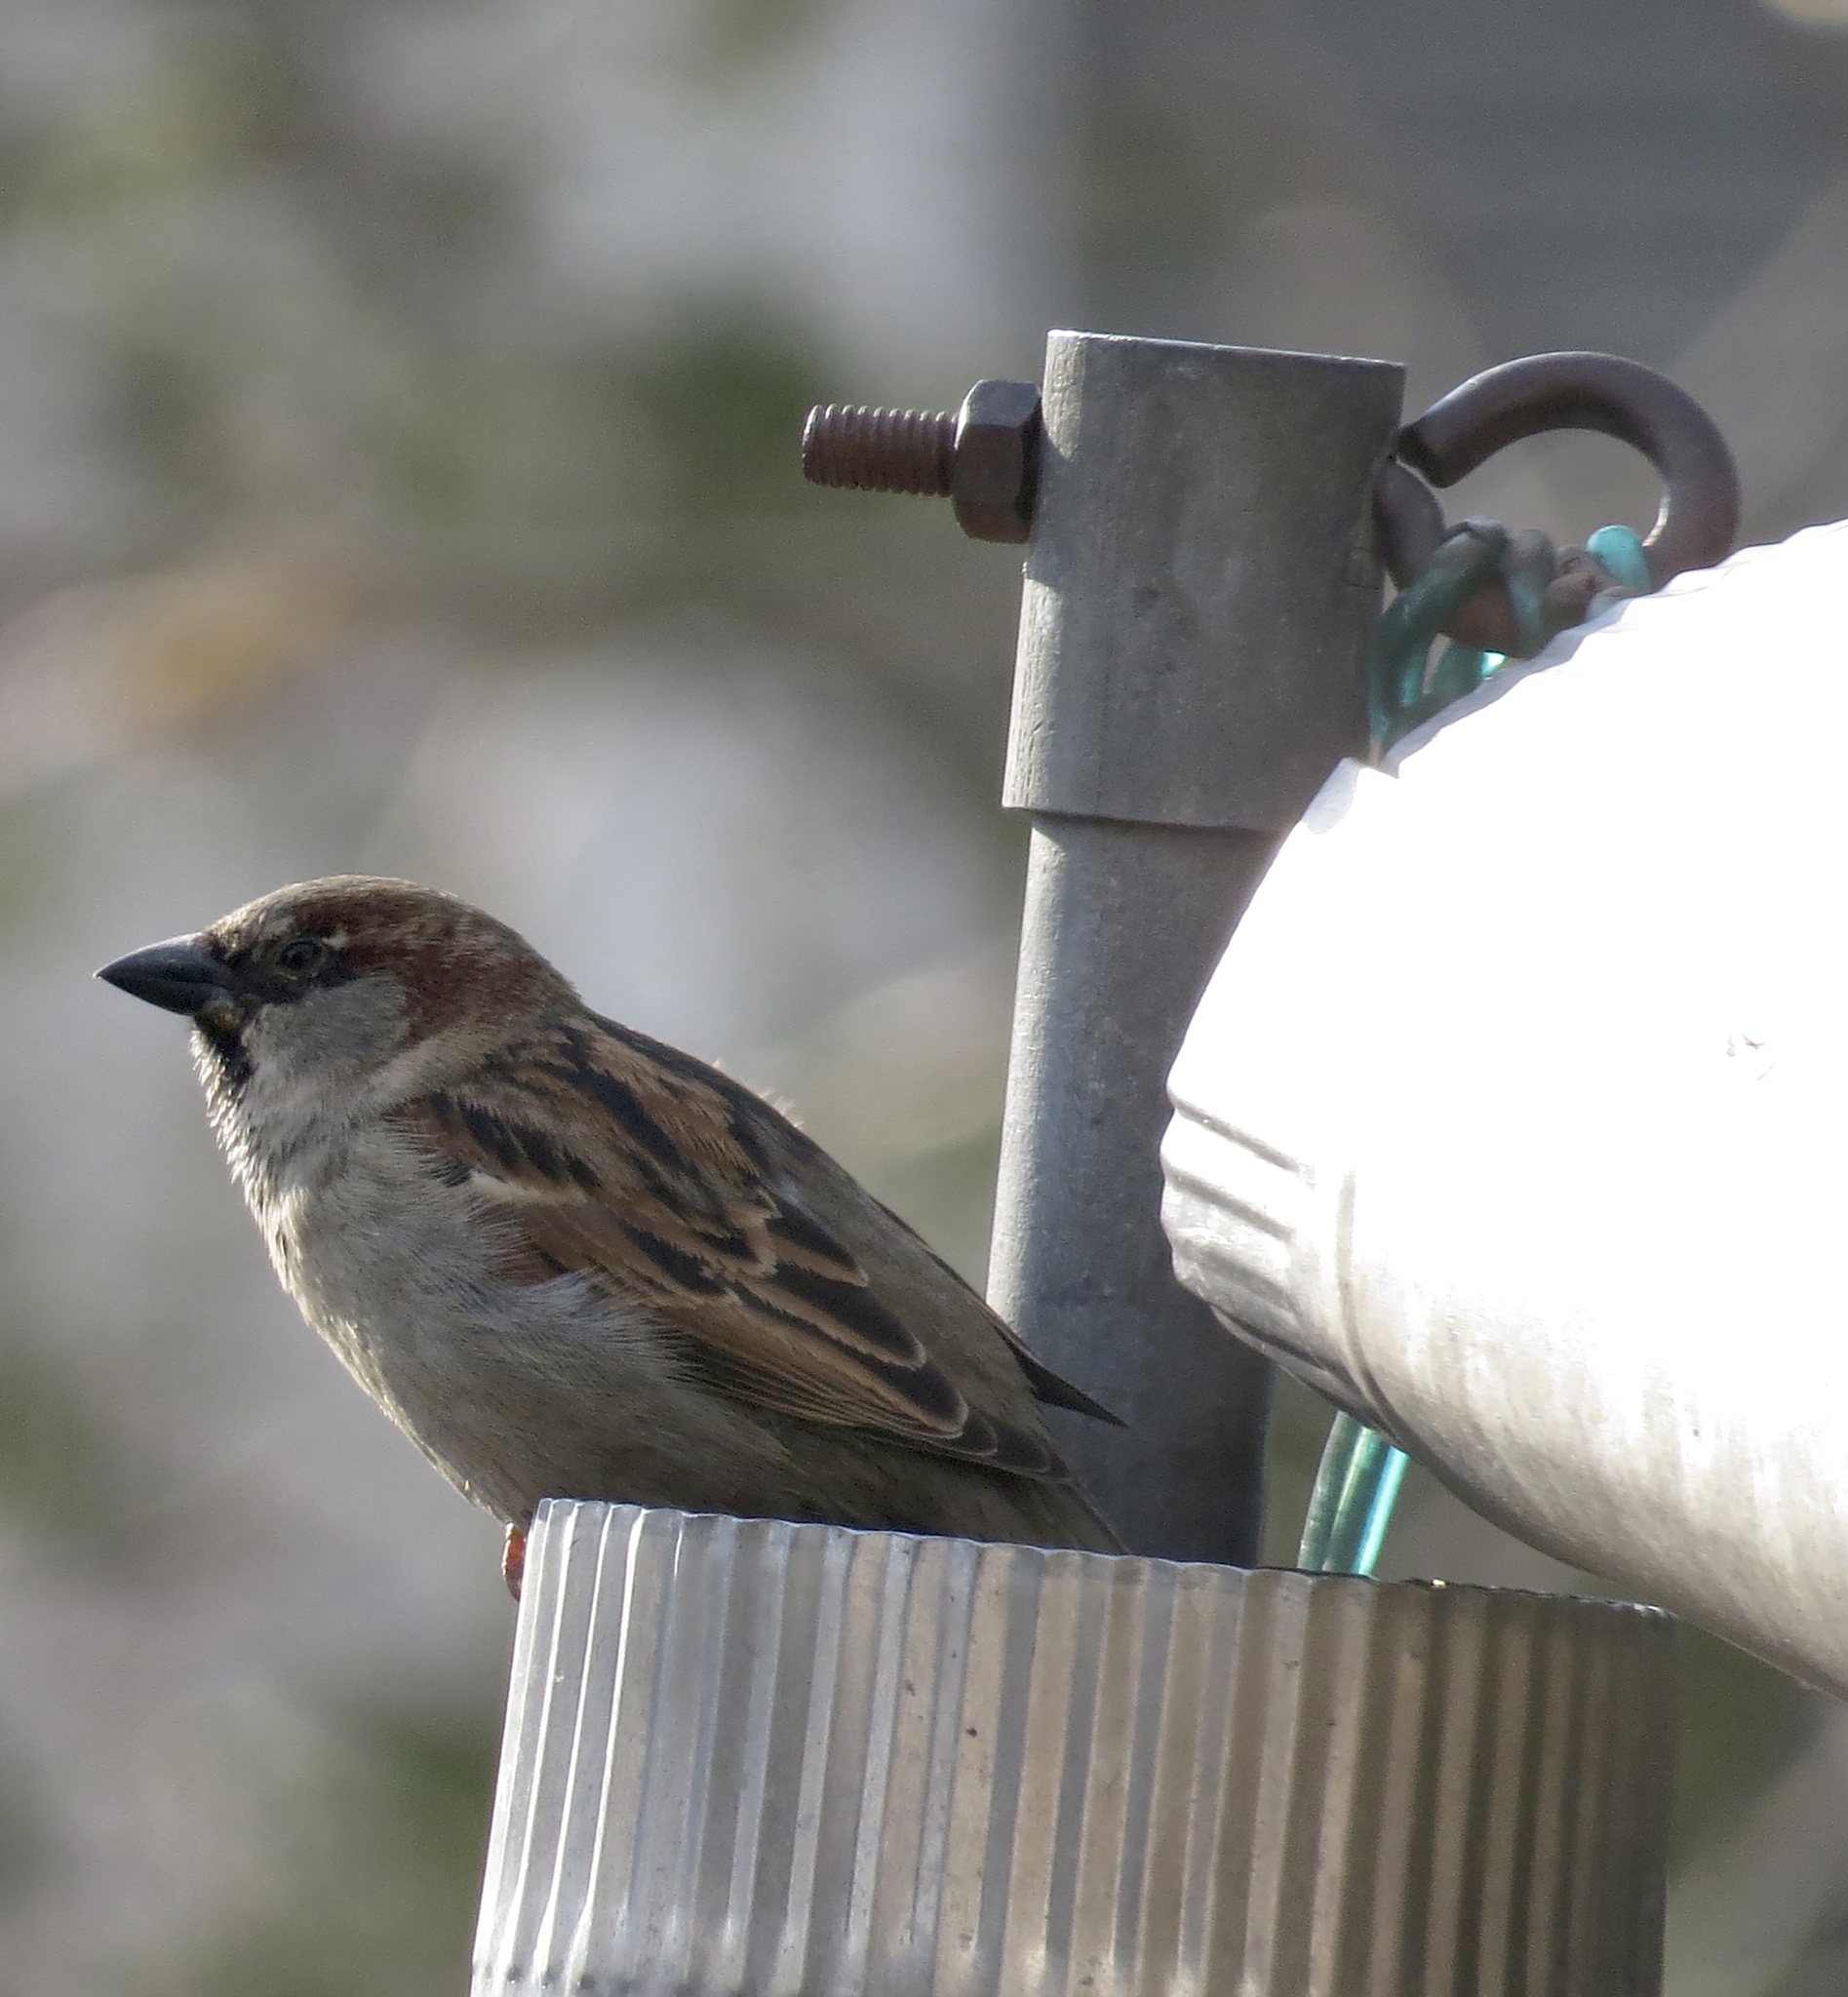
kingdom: Animalia
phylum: Chordata
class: Aves
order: Passeriformes
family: Passeridae
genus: Passer
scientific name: Passer domesticus
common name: House sparrow
